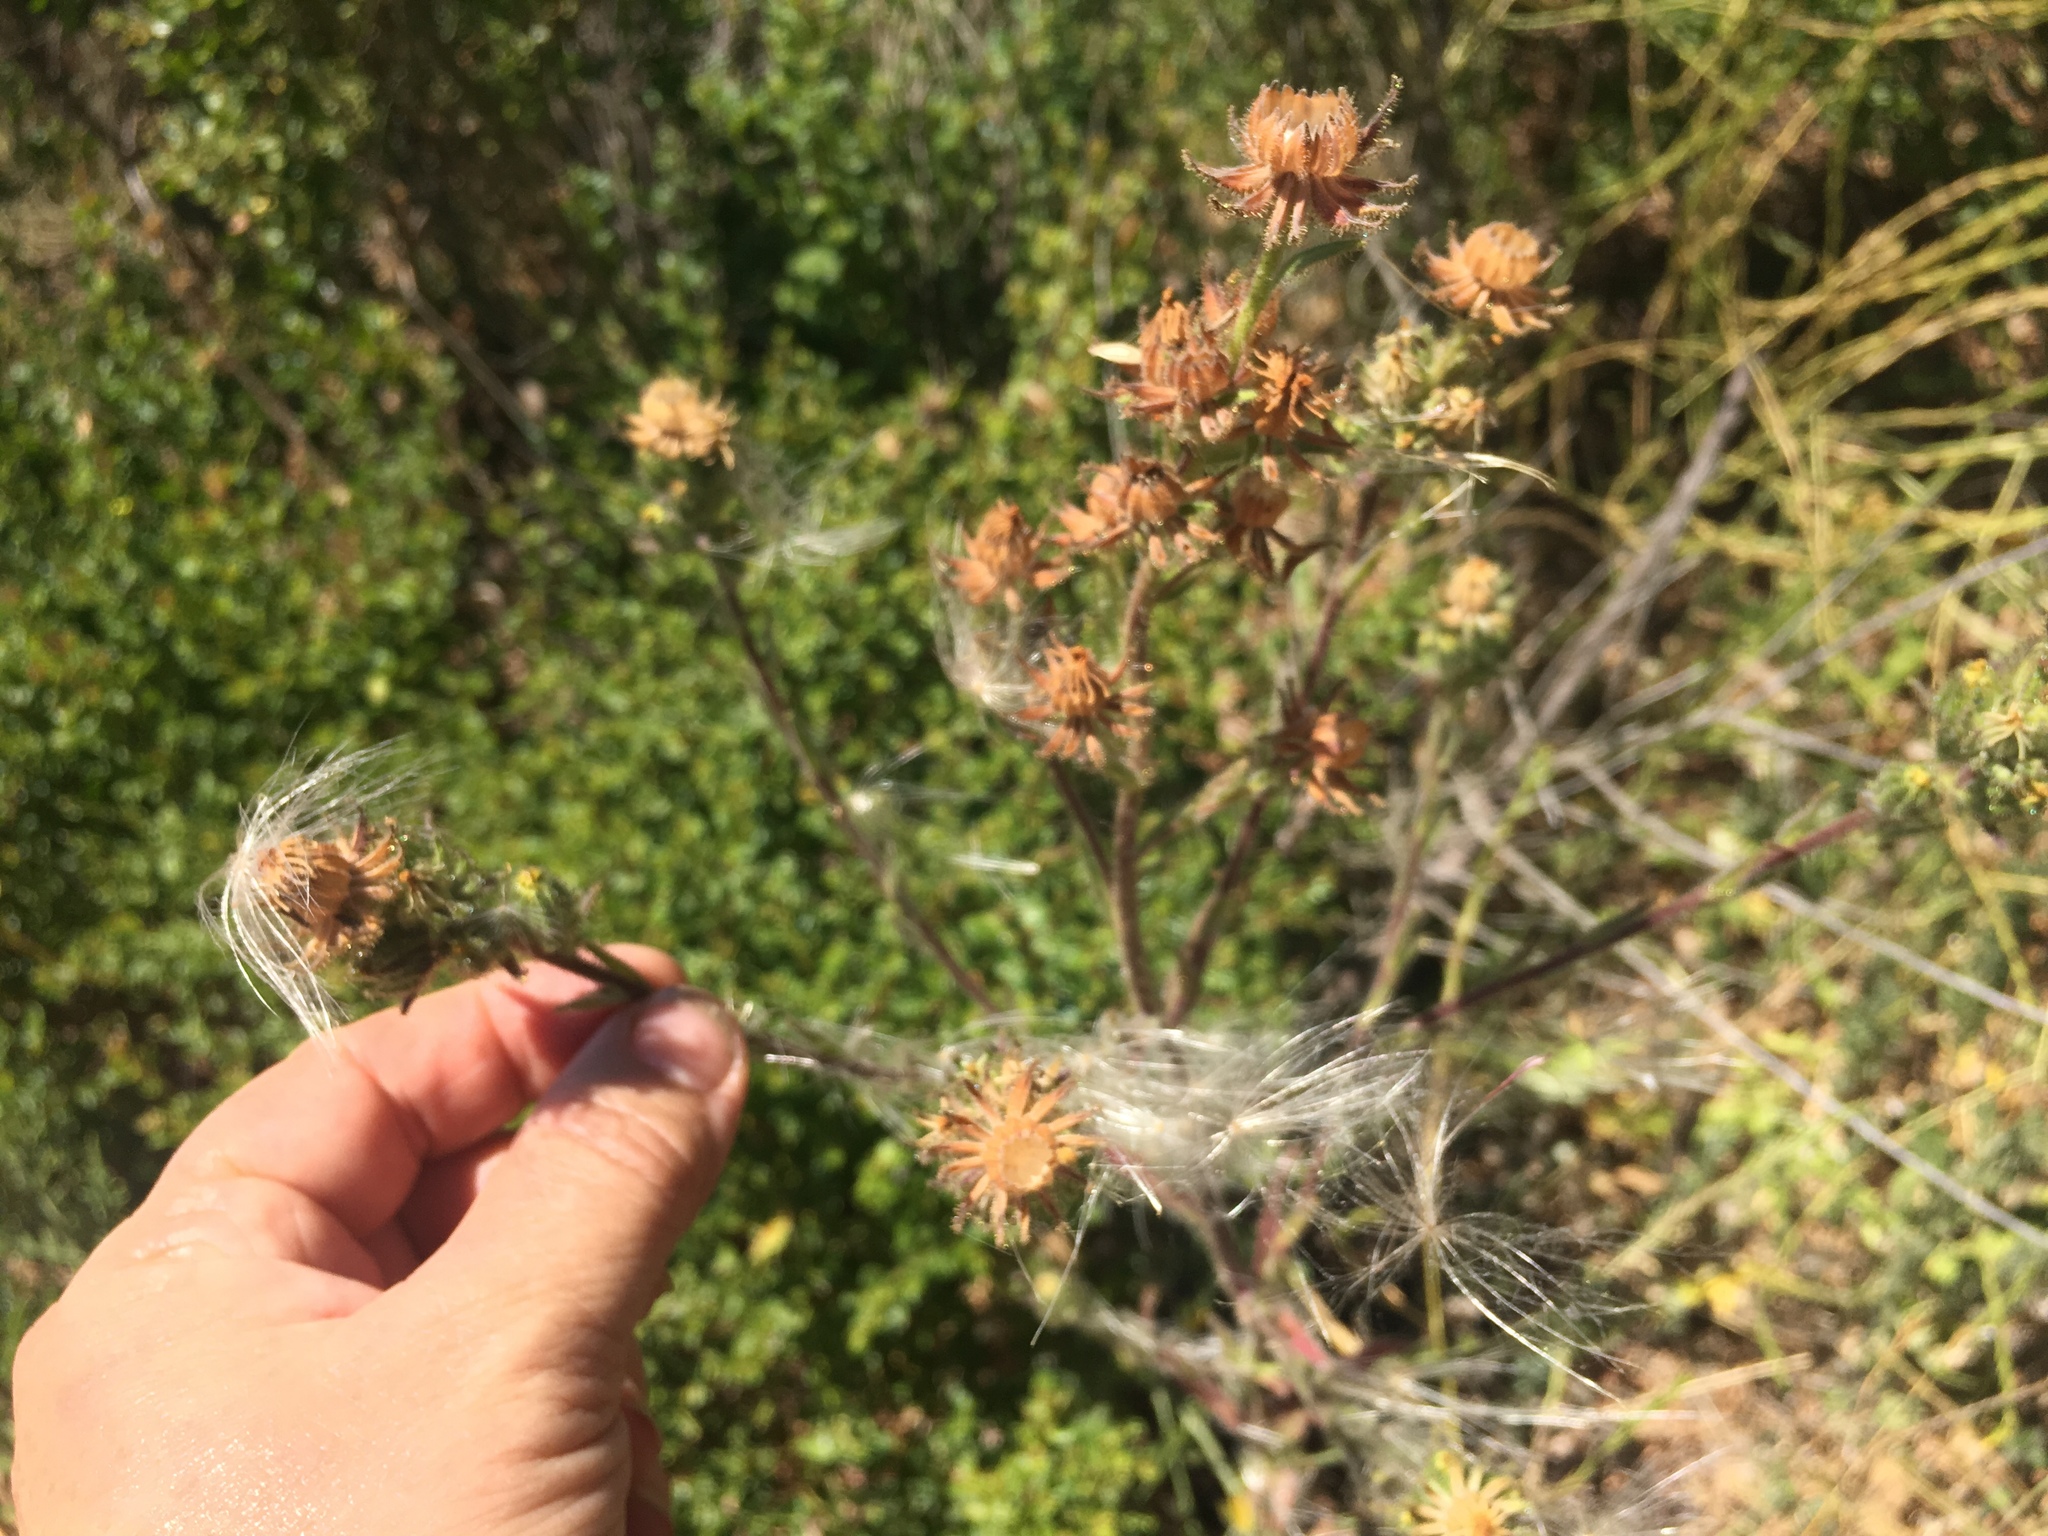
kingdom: Plantae
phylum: Tracheophyta
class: Magnoliopsida
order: Asterales
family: Asteraceae
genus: Madia
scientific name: Madia sativa
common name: Coast tarweed
